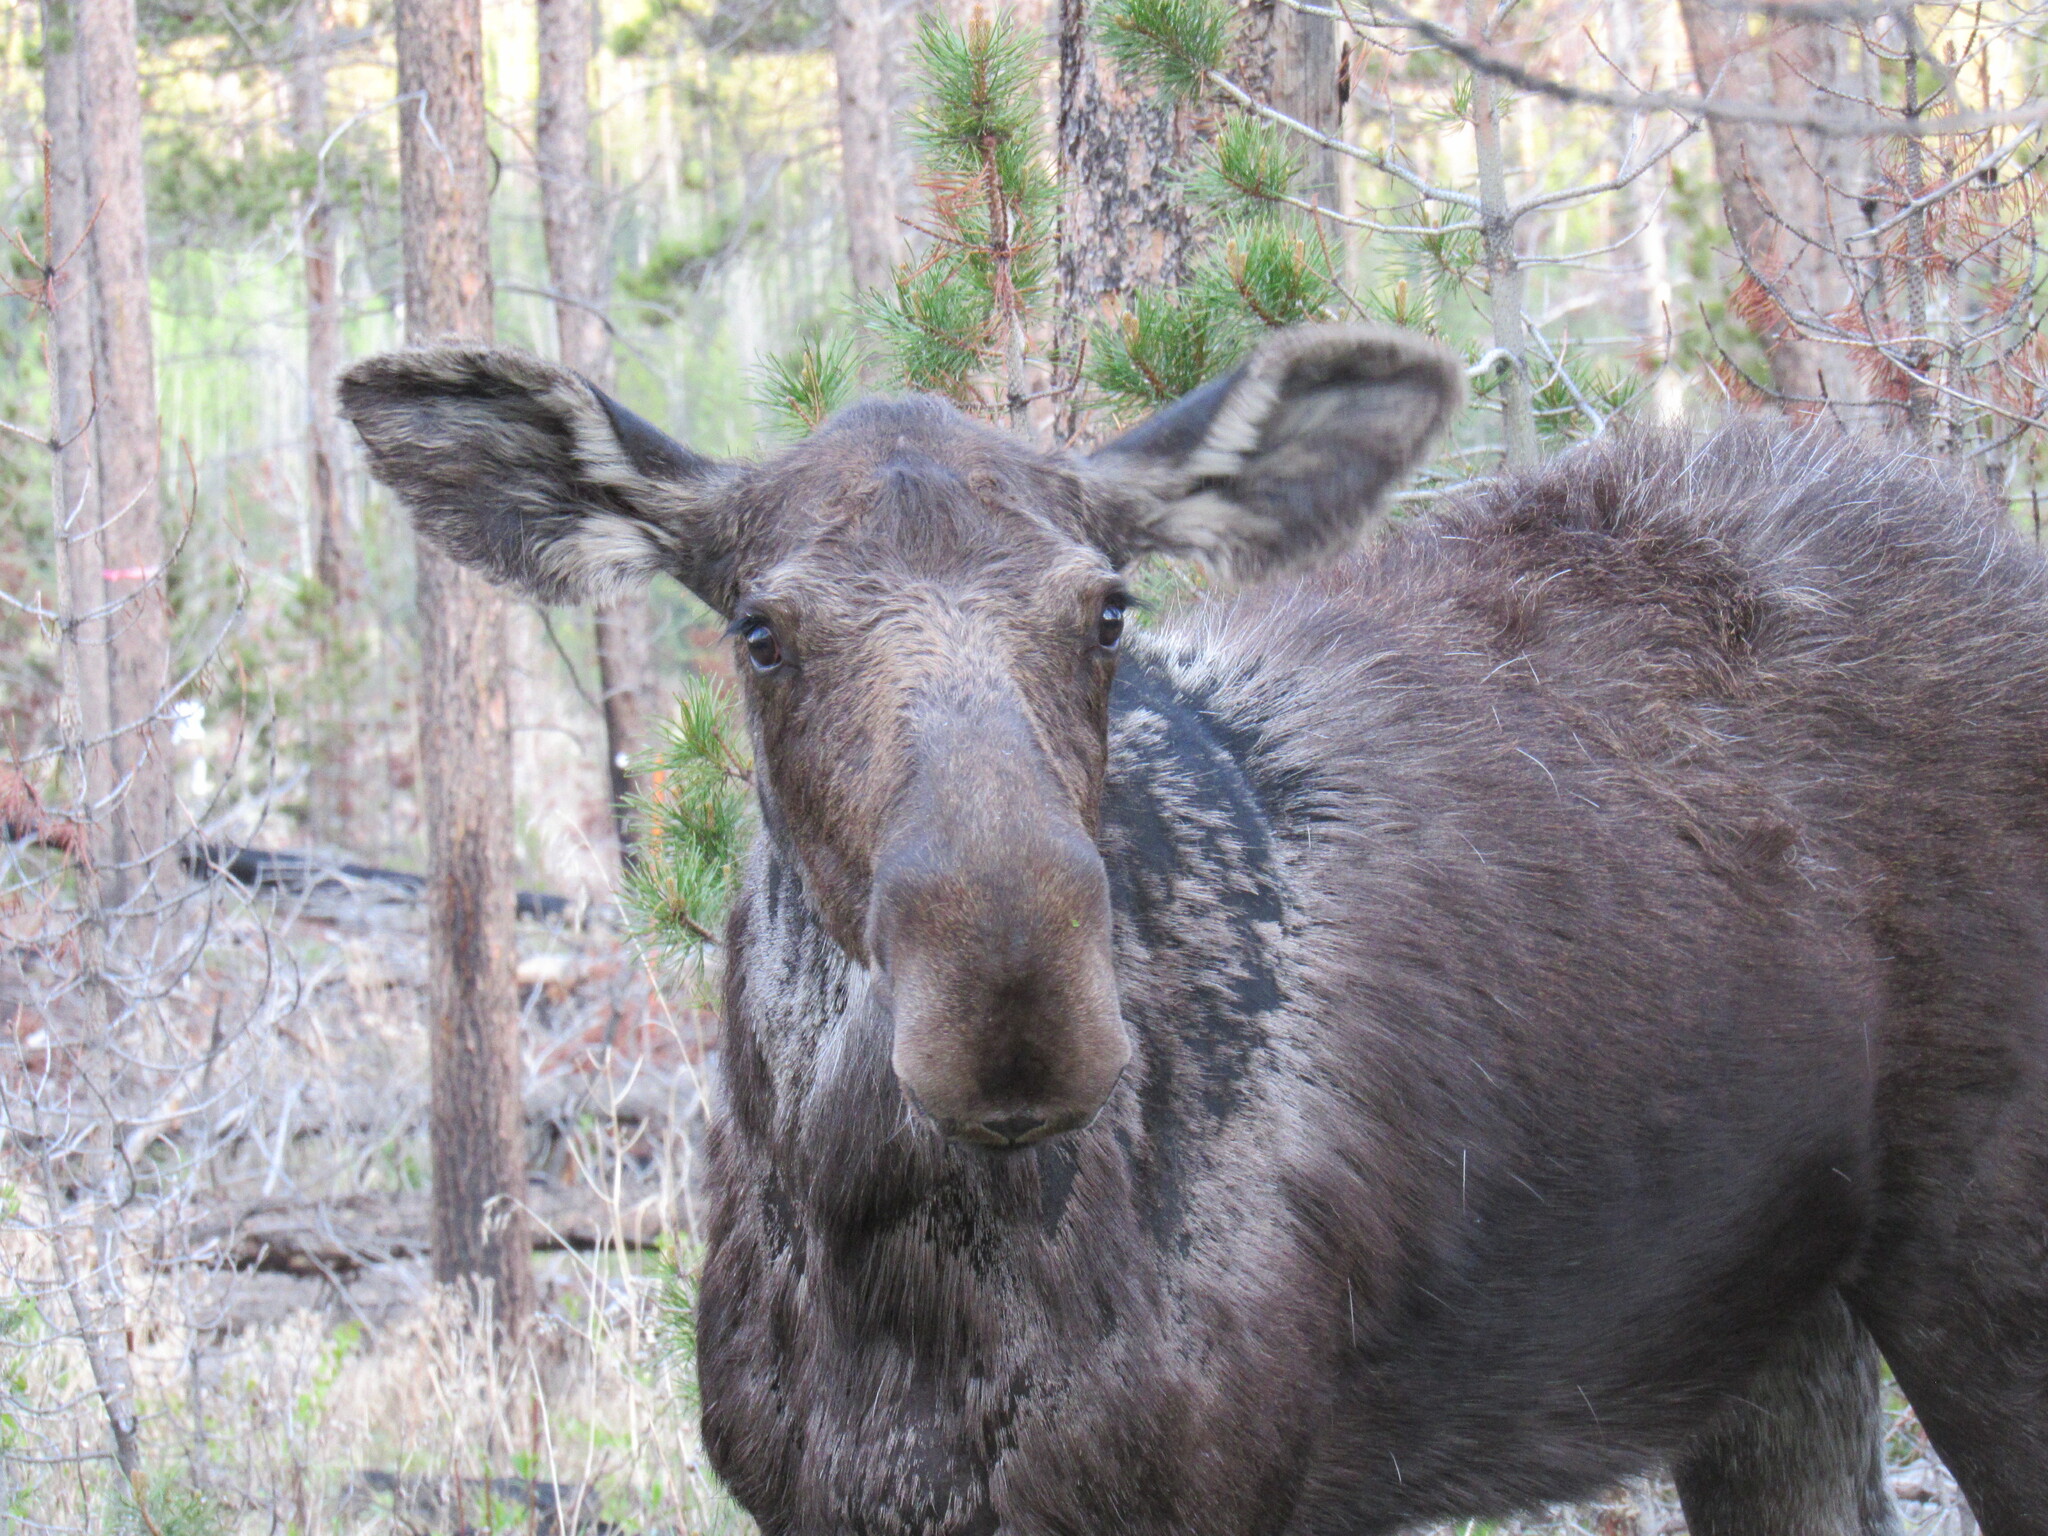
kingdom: Animalia
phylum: Chordata
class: Mammalia
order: Artiodactyla
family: Cervidae
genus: Alces
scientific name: Alces alces
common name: Moose
